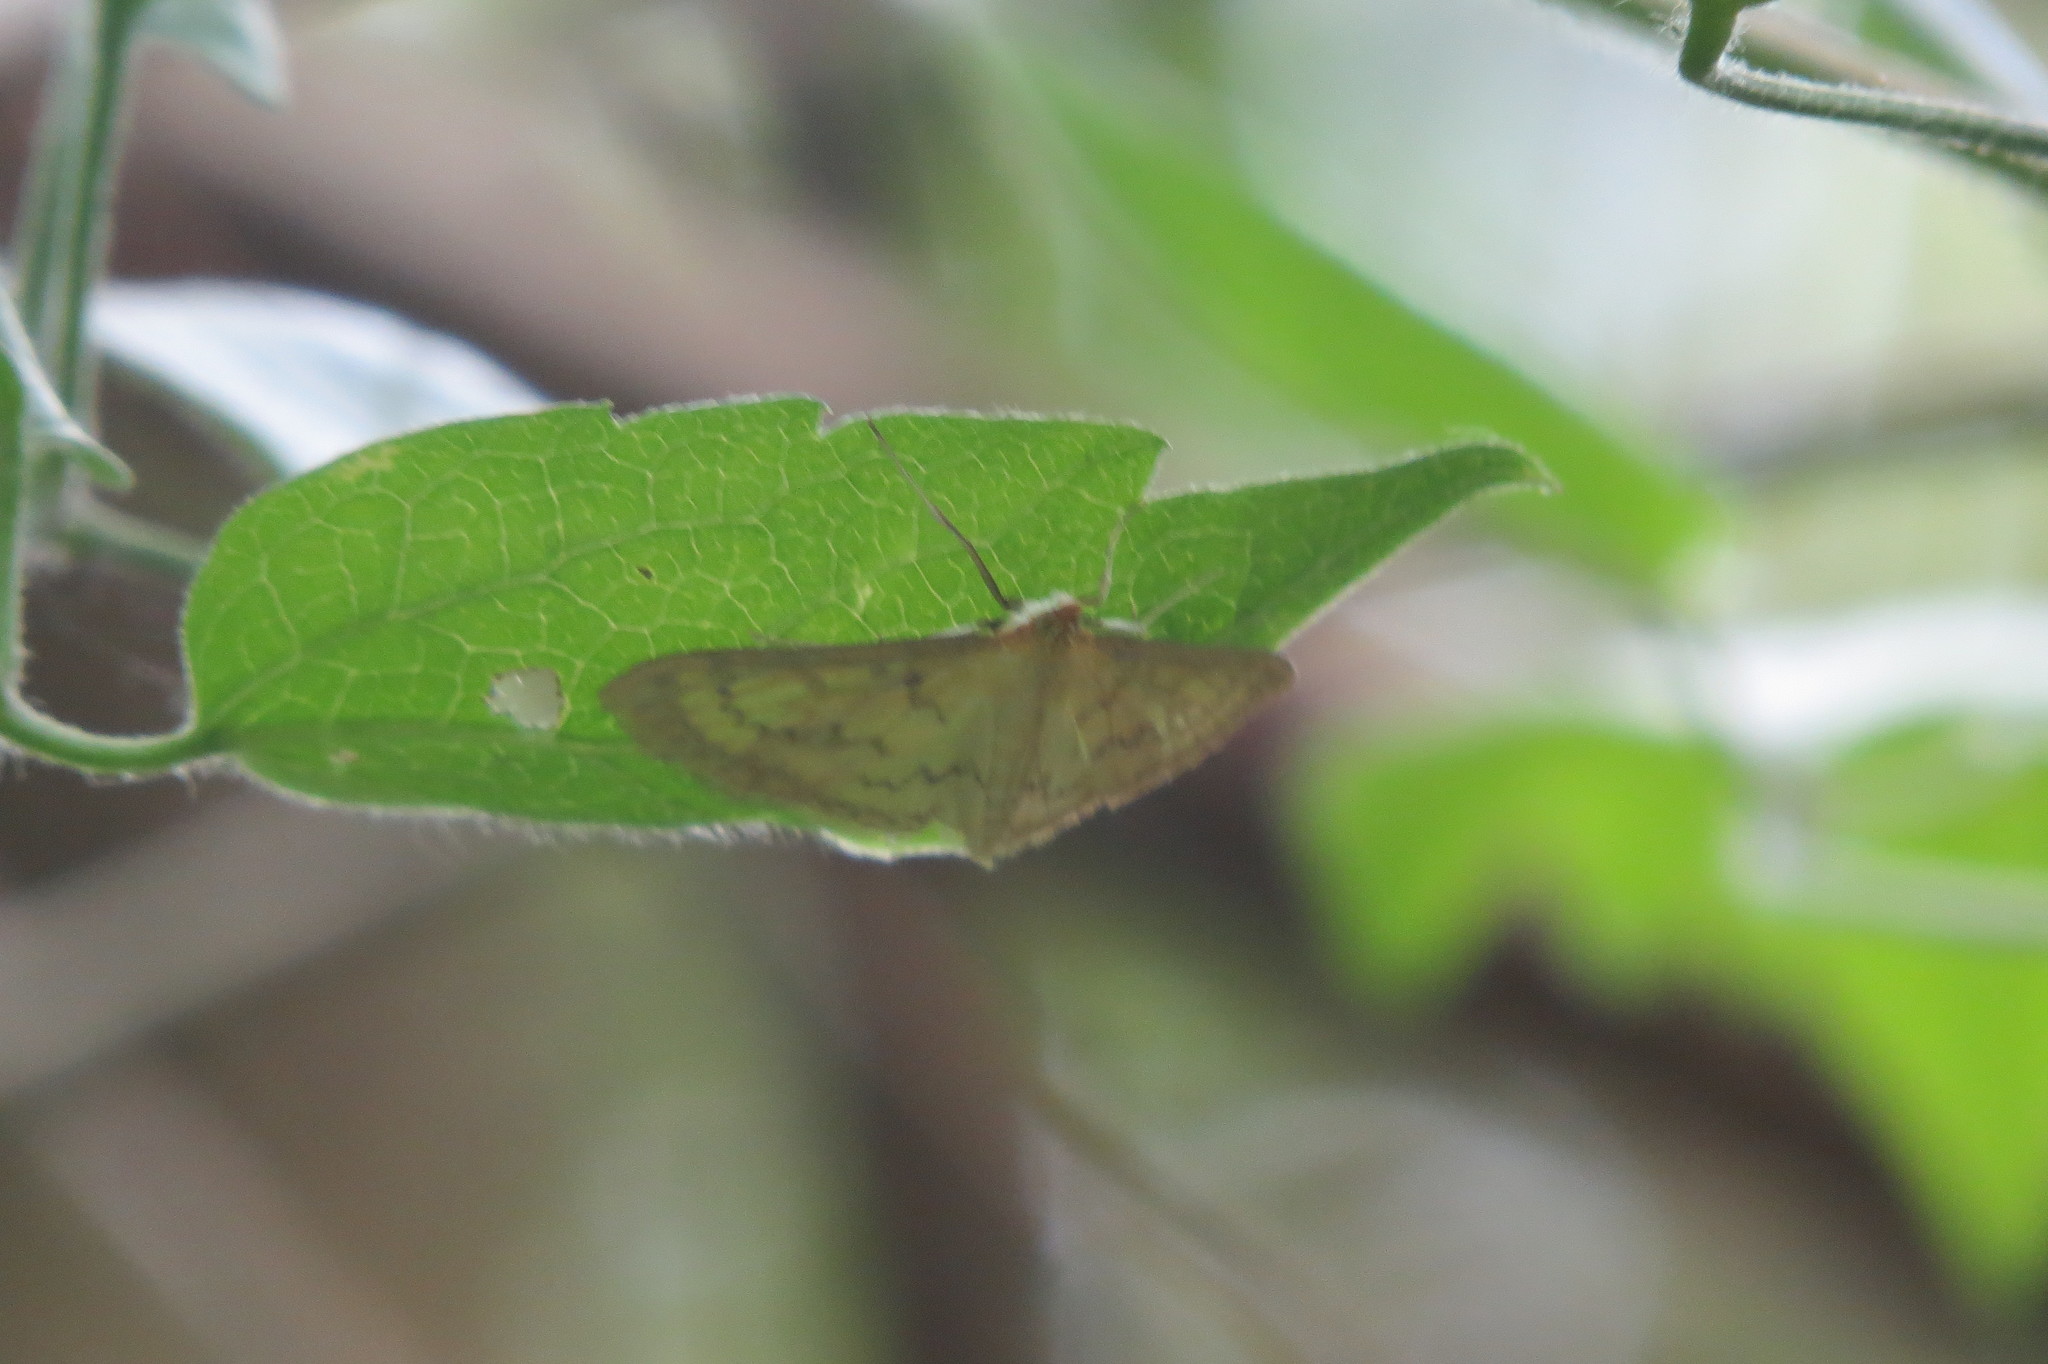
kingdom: Animalia
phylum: Arthropoda
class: Insecta
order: Lepidoptera
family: Crambidae
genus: Paratalanta
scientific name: Paratalanta pandalis
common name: Bordered pearl
